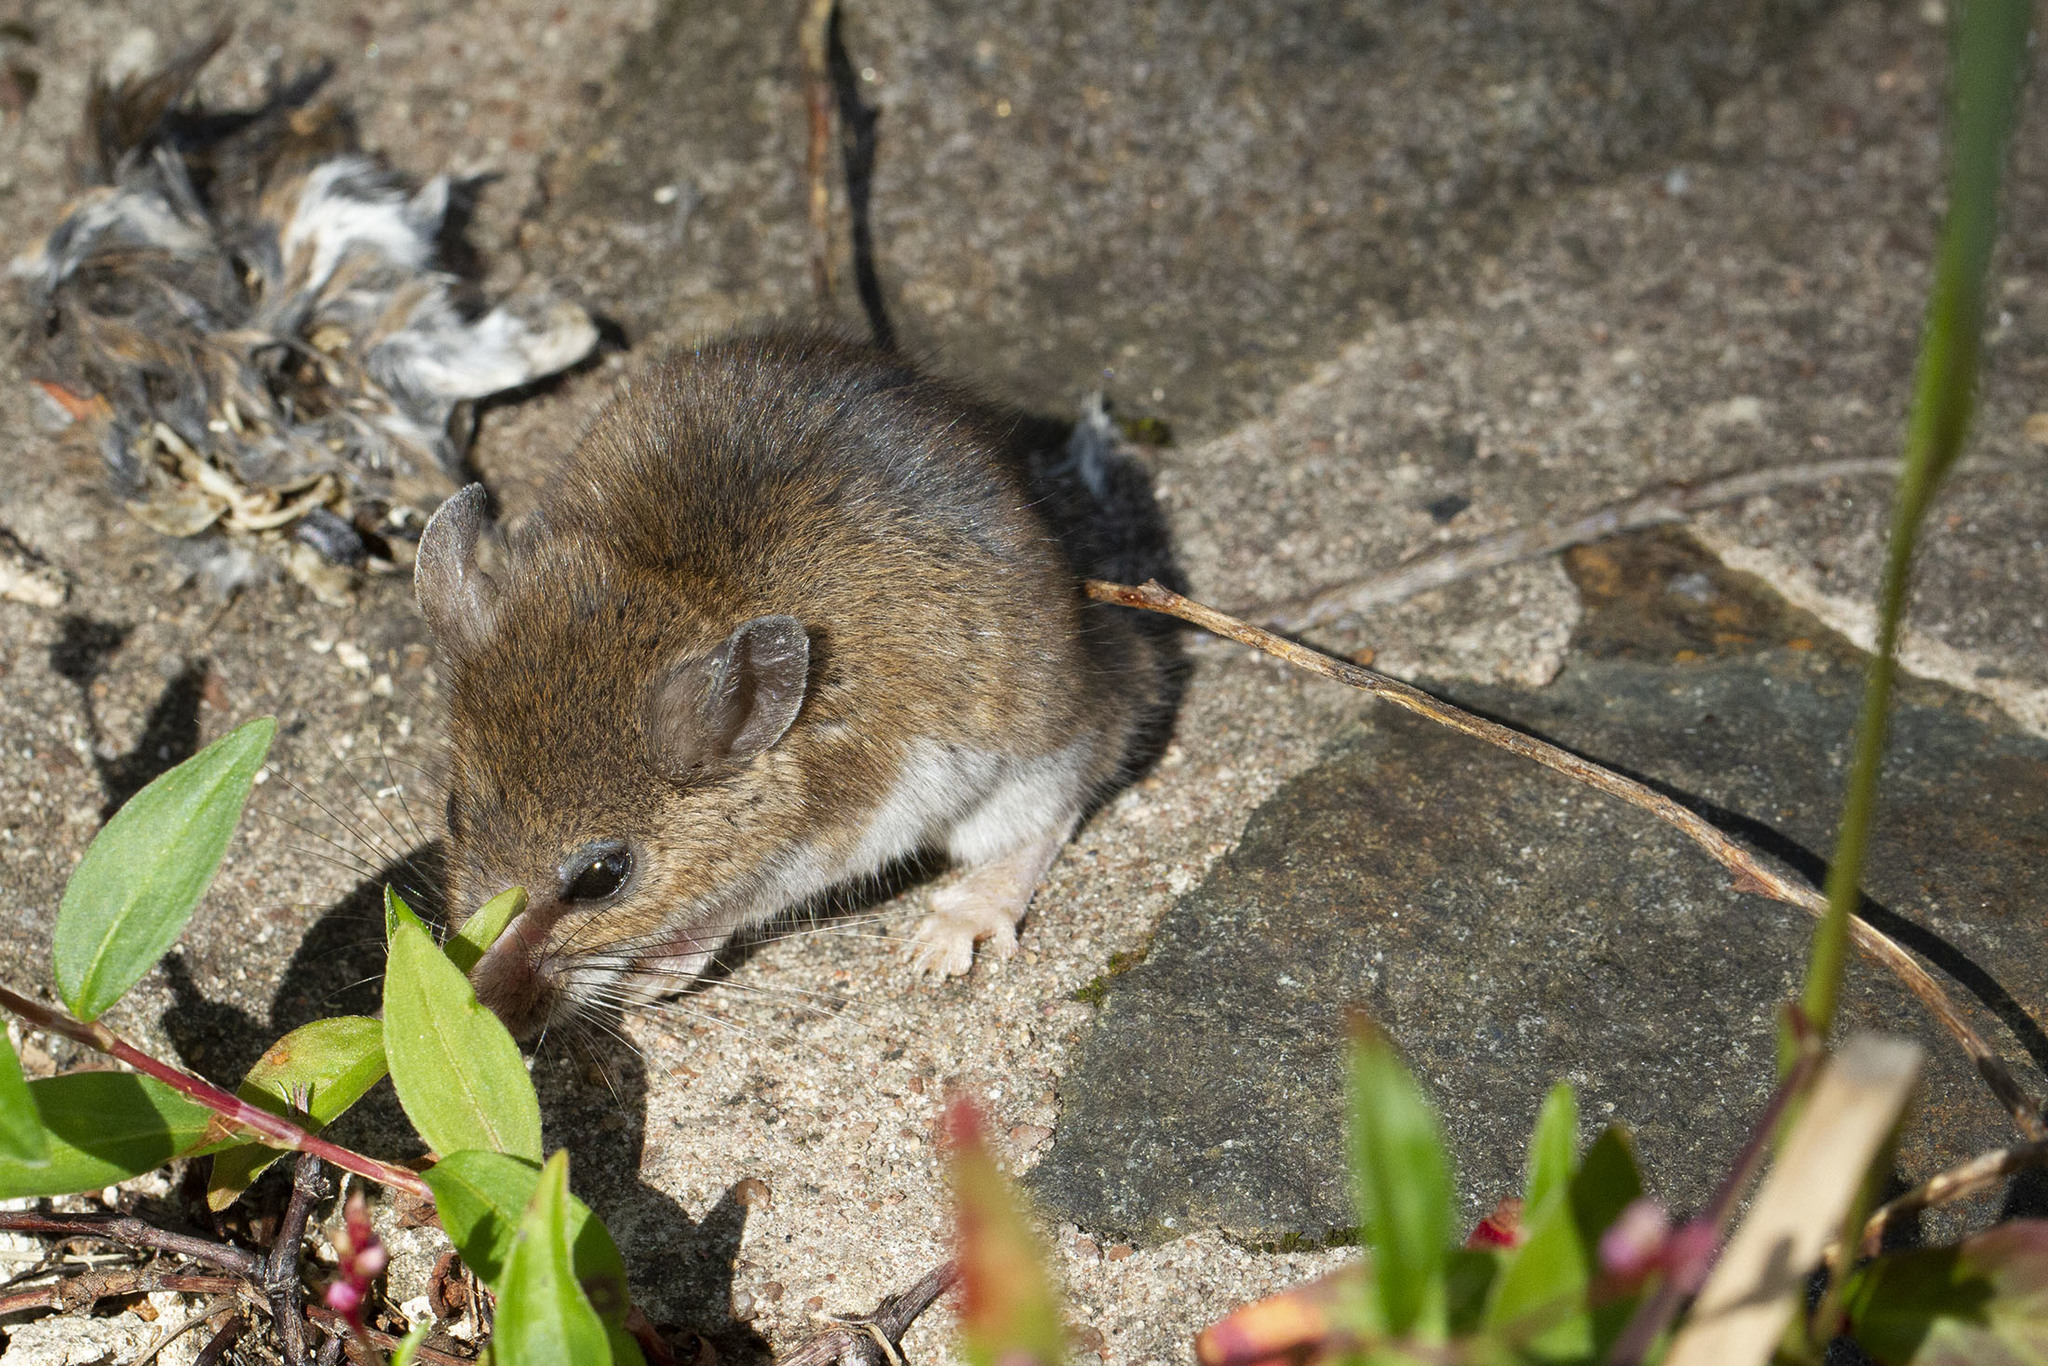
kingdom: Animalia
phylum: Chordata
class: Mammalia
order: Rodentia
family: Cricetidae
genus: Peromyscus
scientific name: Peromyscus leucopus
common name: White-footed deermouse
